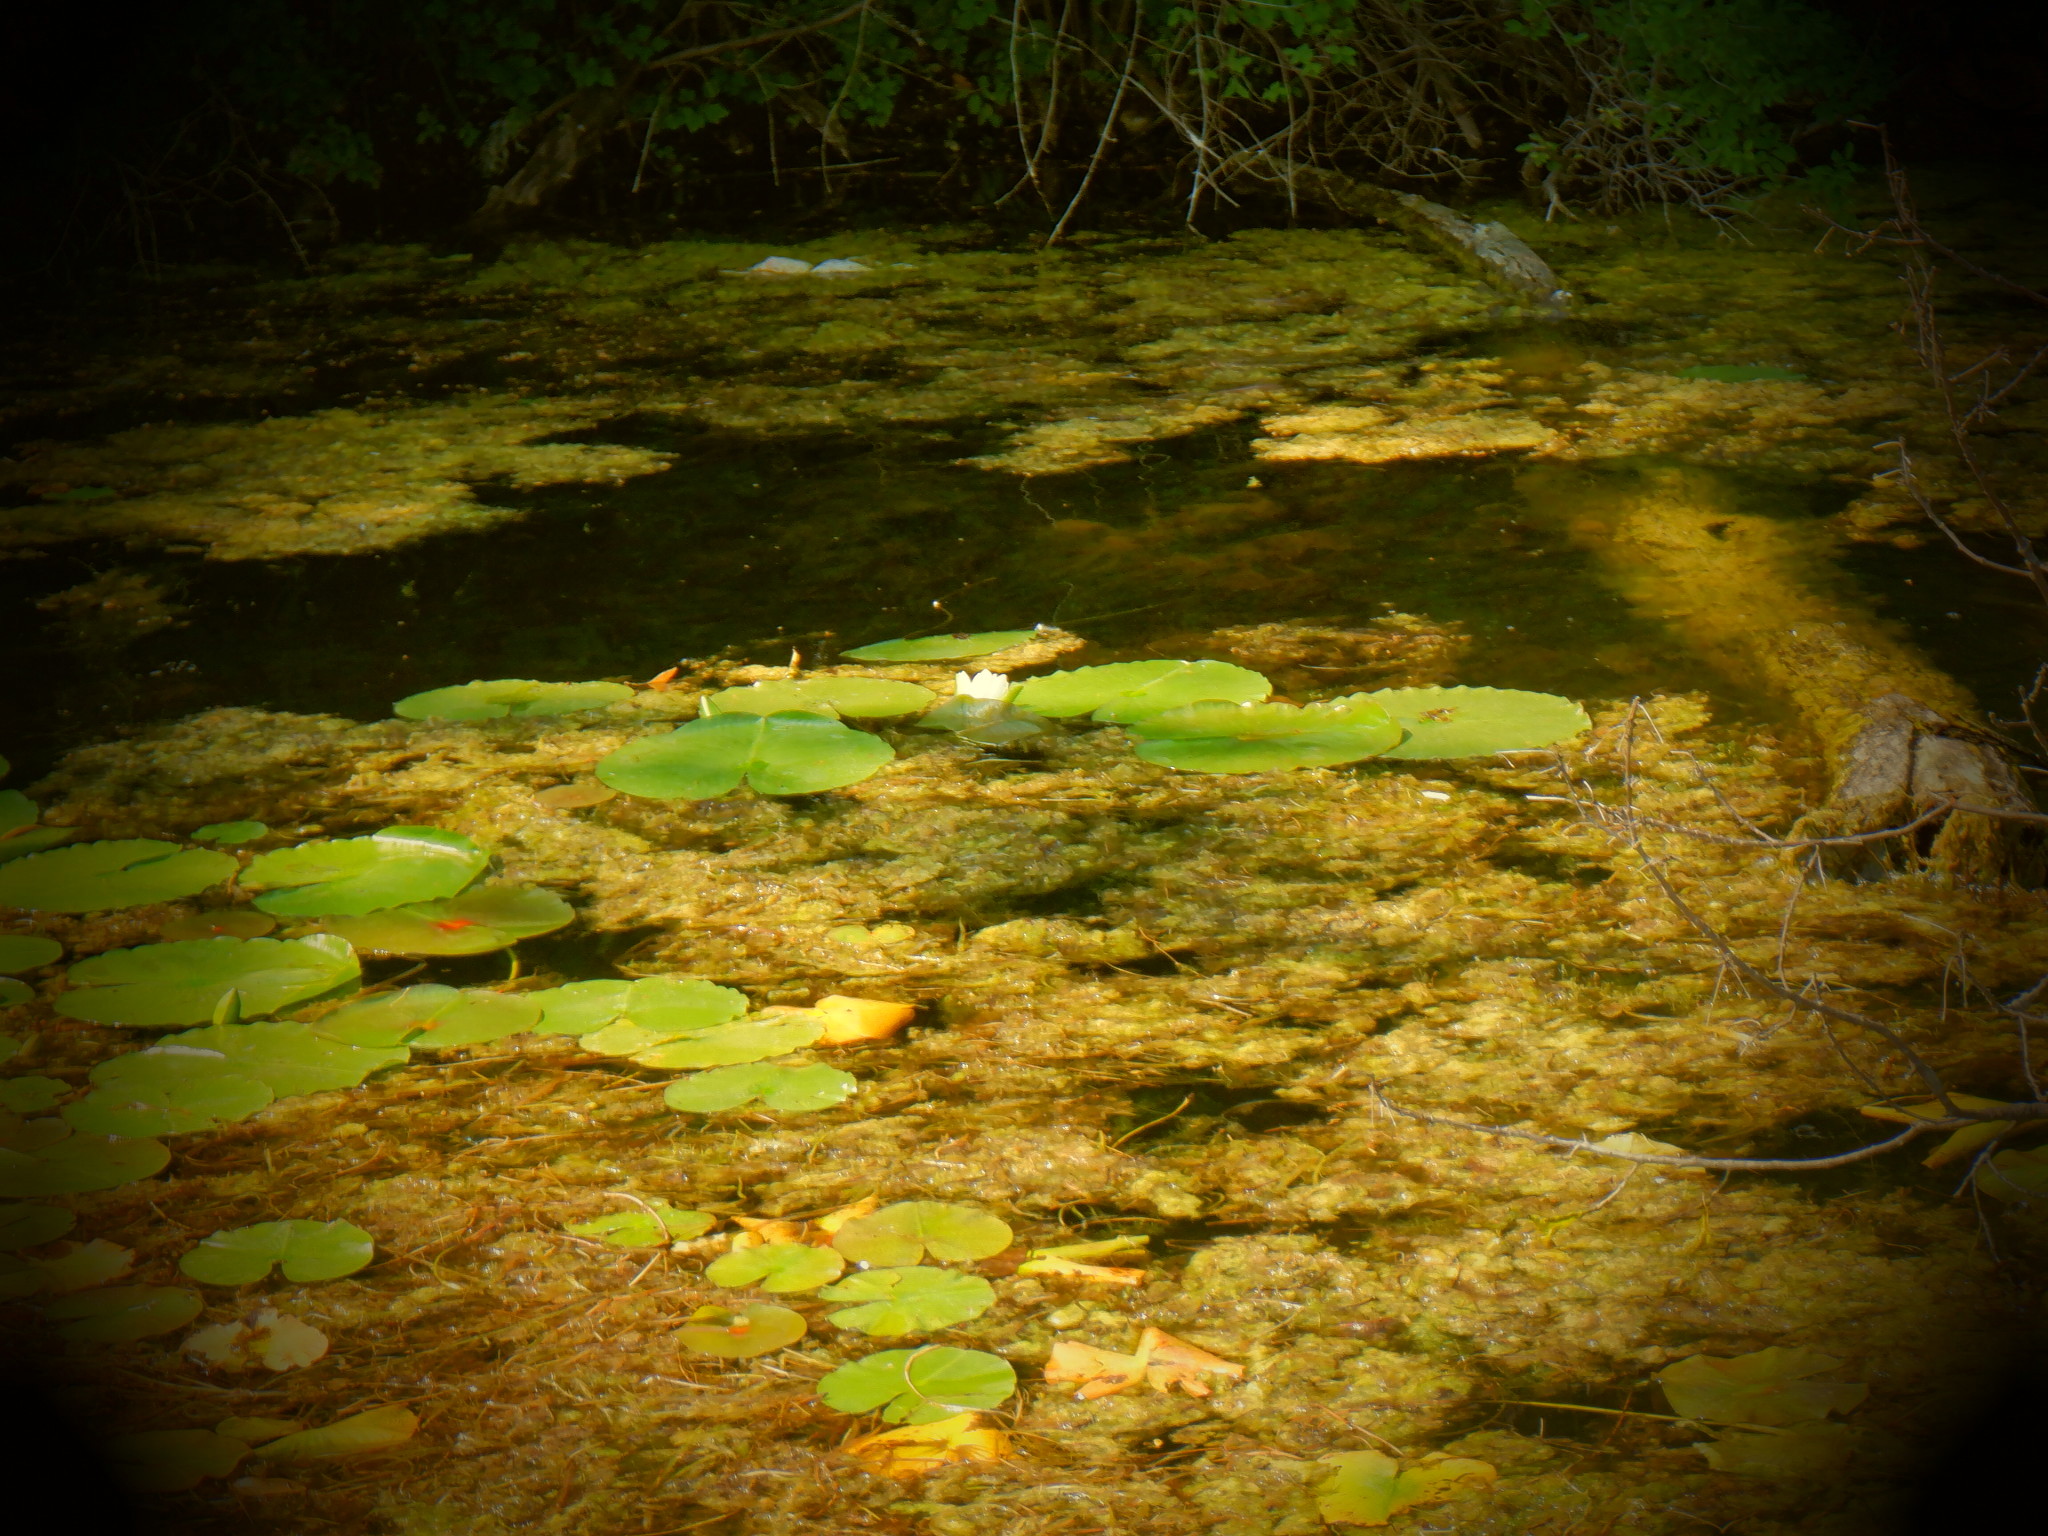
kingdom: Plantae
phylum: Tracheophyta
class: Magnoliopsida
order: Nymphaeales
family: Nymphaeaceae
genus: Nymphaea
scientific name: Nymphaea odorata
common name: Fragrant water-lily
